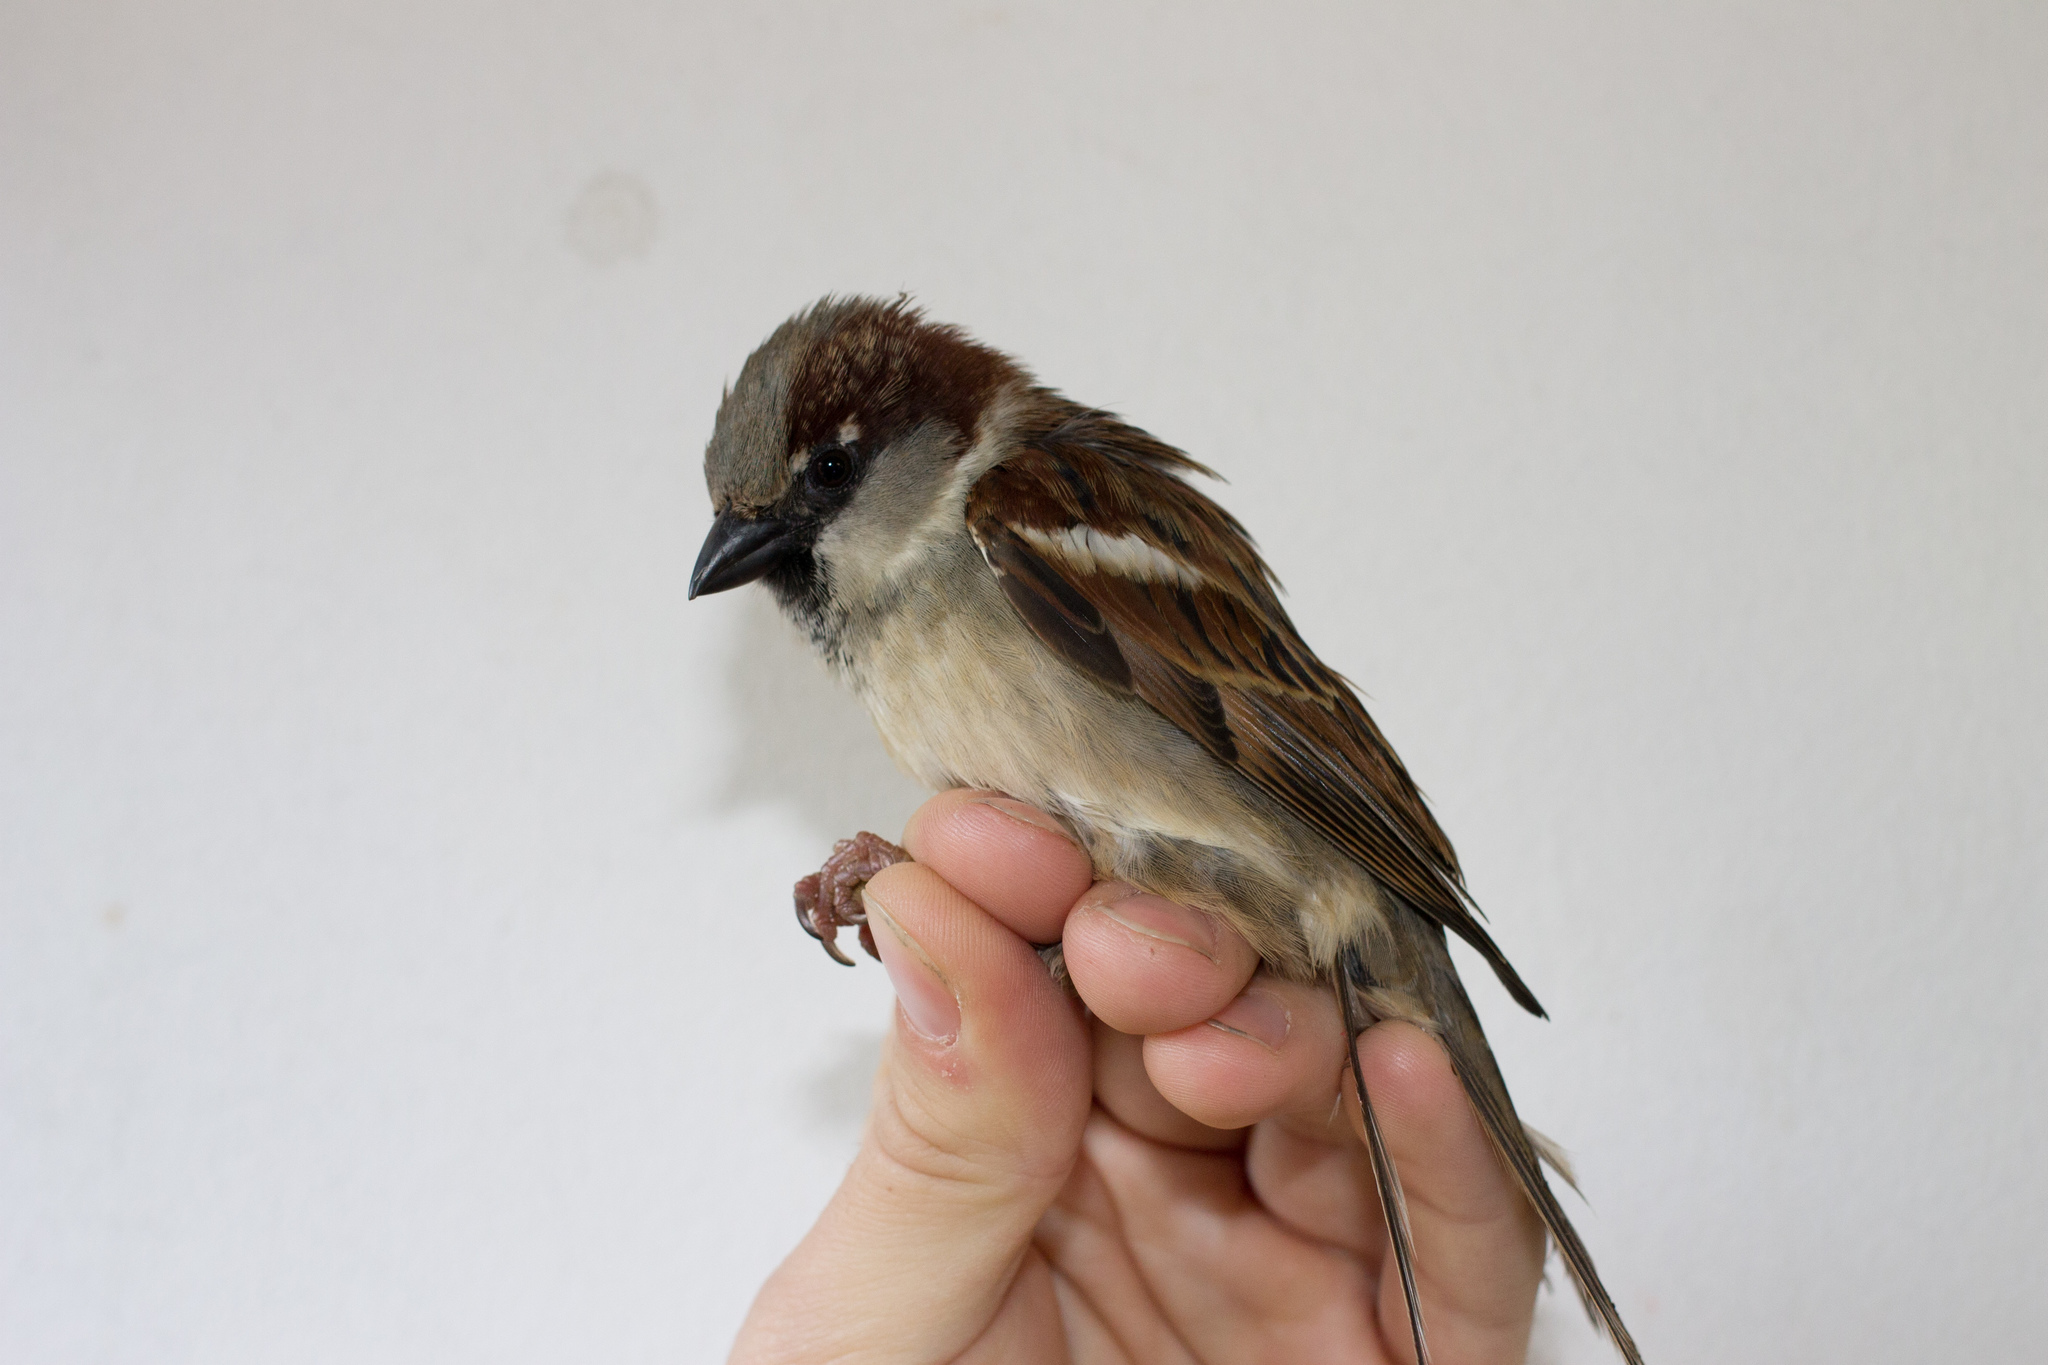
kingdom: Animalia
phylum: Chordata
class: Aves
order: Passeriformes
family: Passeridae
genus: Passer
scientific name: Passer domesticus
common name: House sparrow
